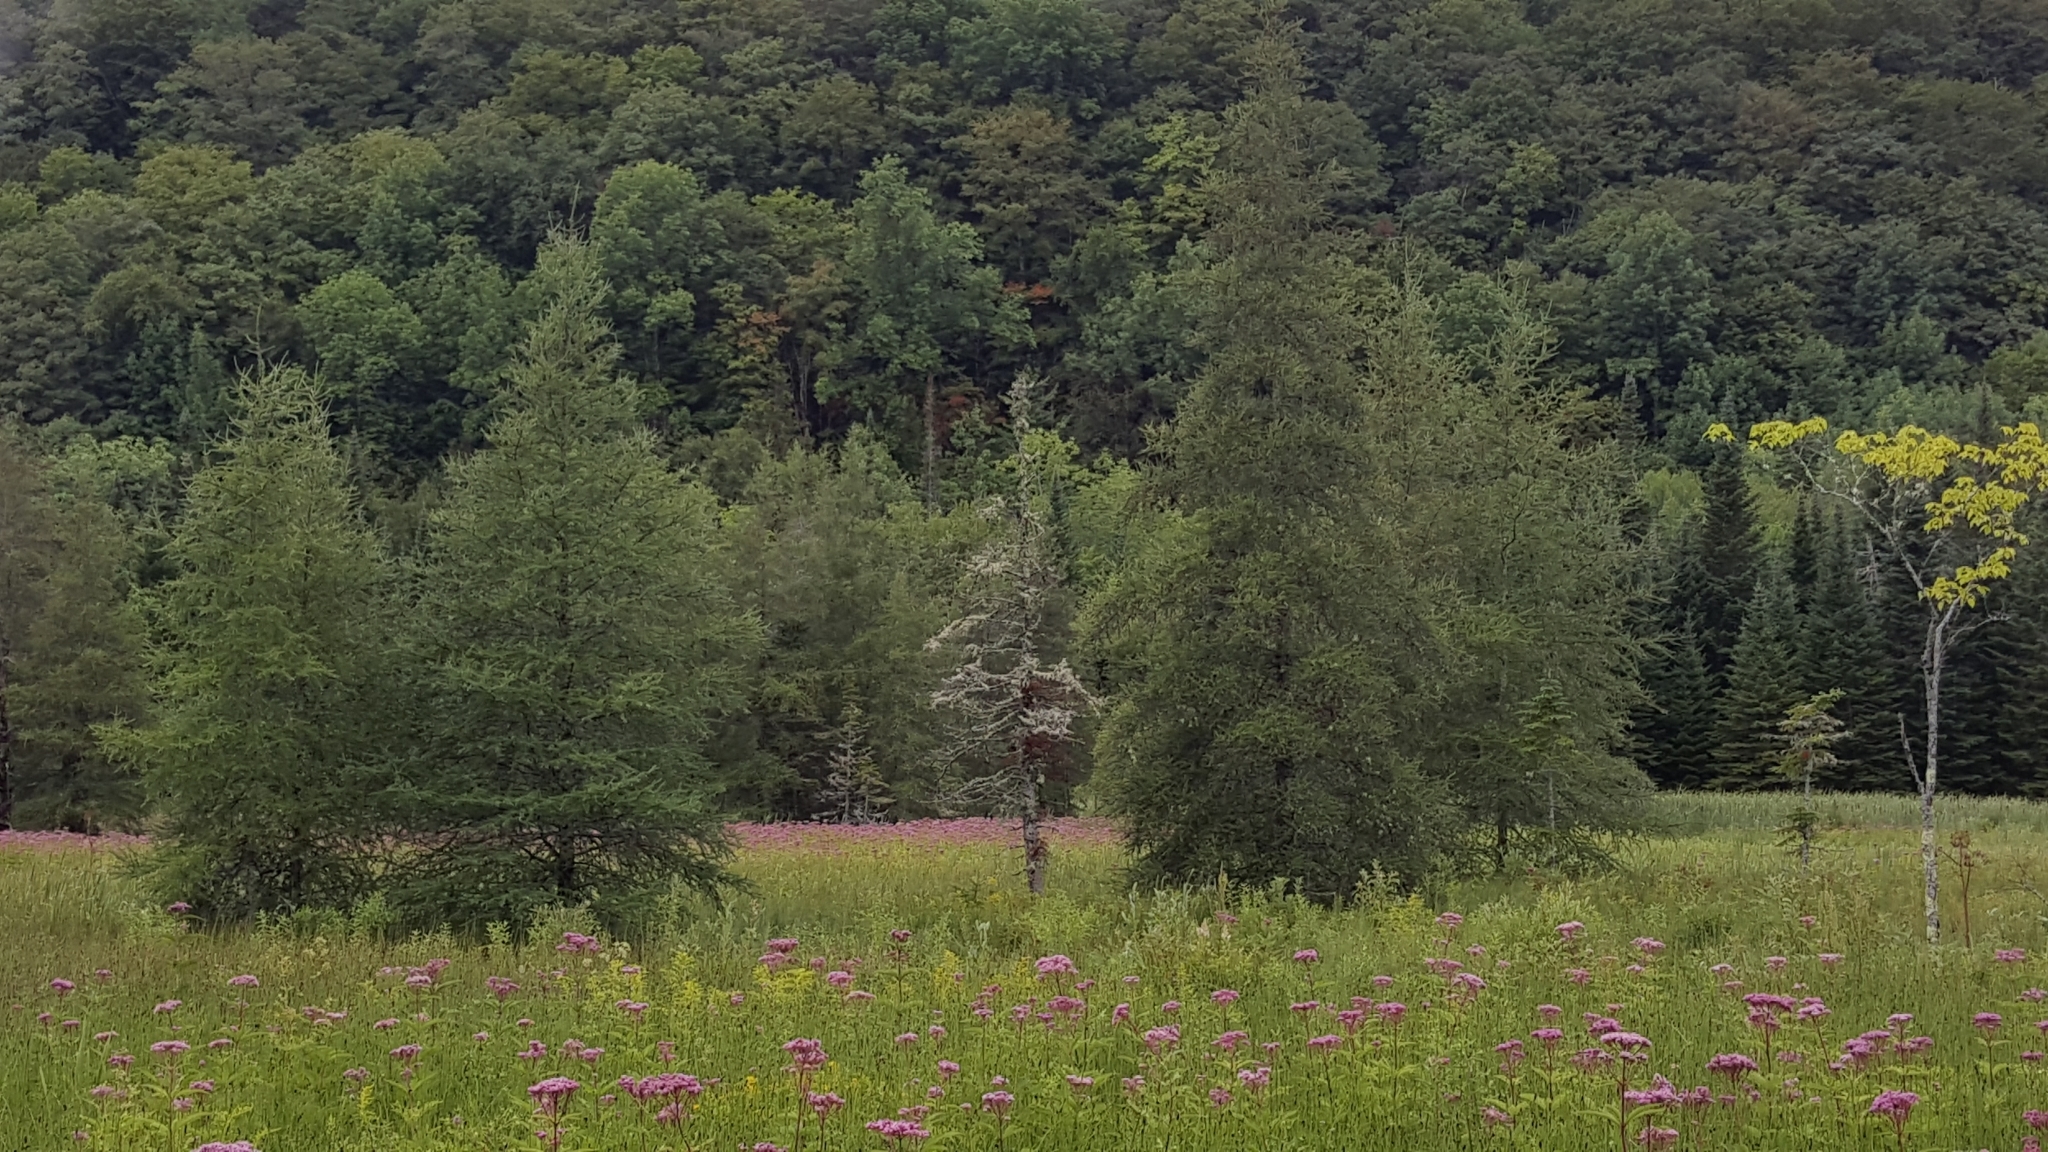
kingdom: Plantae
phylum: Tracheophyta
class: Pinopsida
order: Pinales
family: Pinaceae
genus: Larix
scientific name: Larix laricina
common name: American larch
